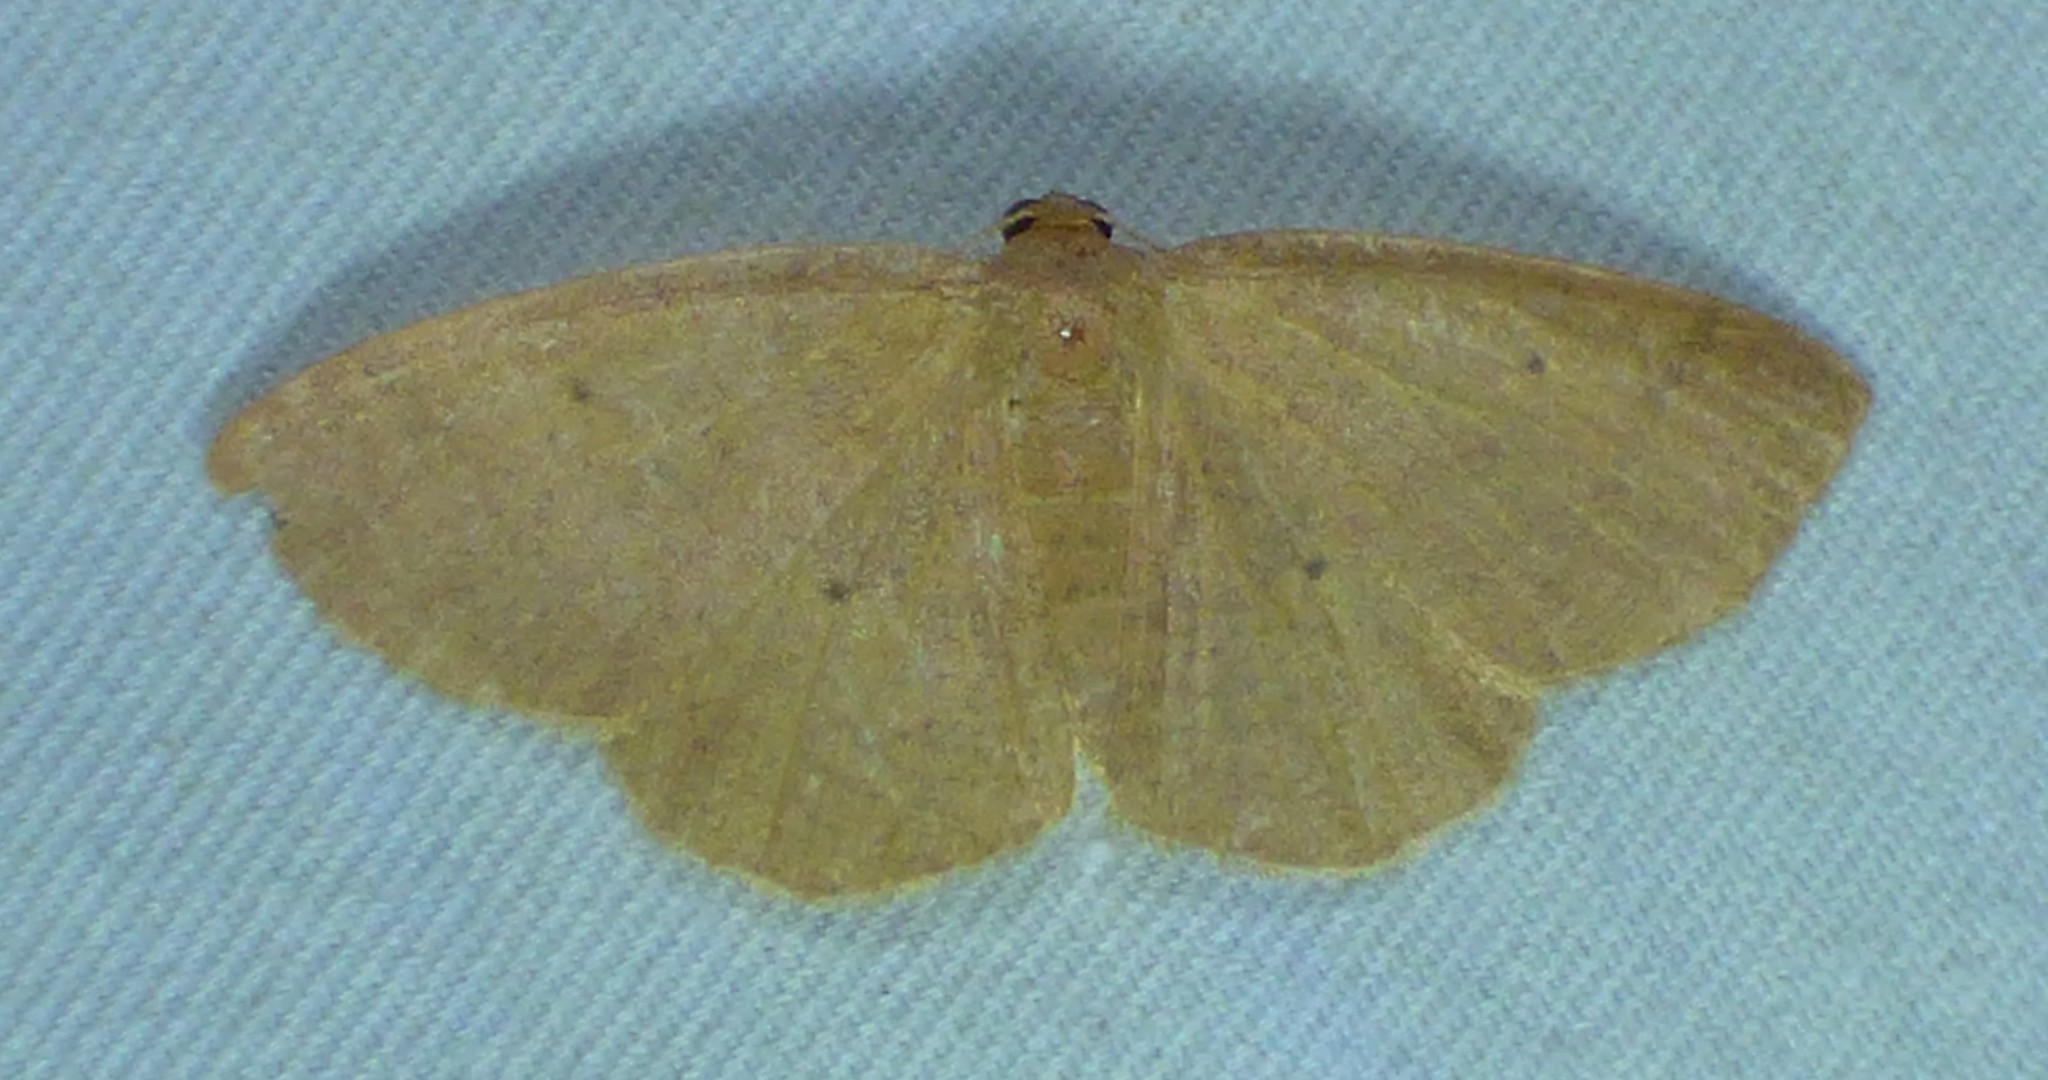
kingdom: Animalia
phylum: Arthropoda
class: Insecta
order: Lepidoptera
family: Geometridae
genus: Ilexia
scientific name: Ilexia intractata
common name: Black-dotted ruddy moth
